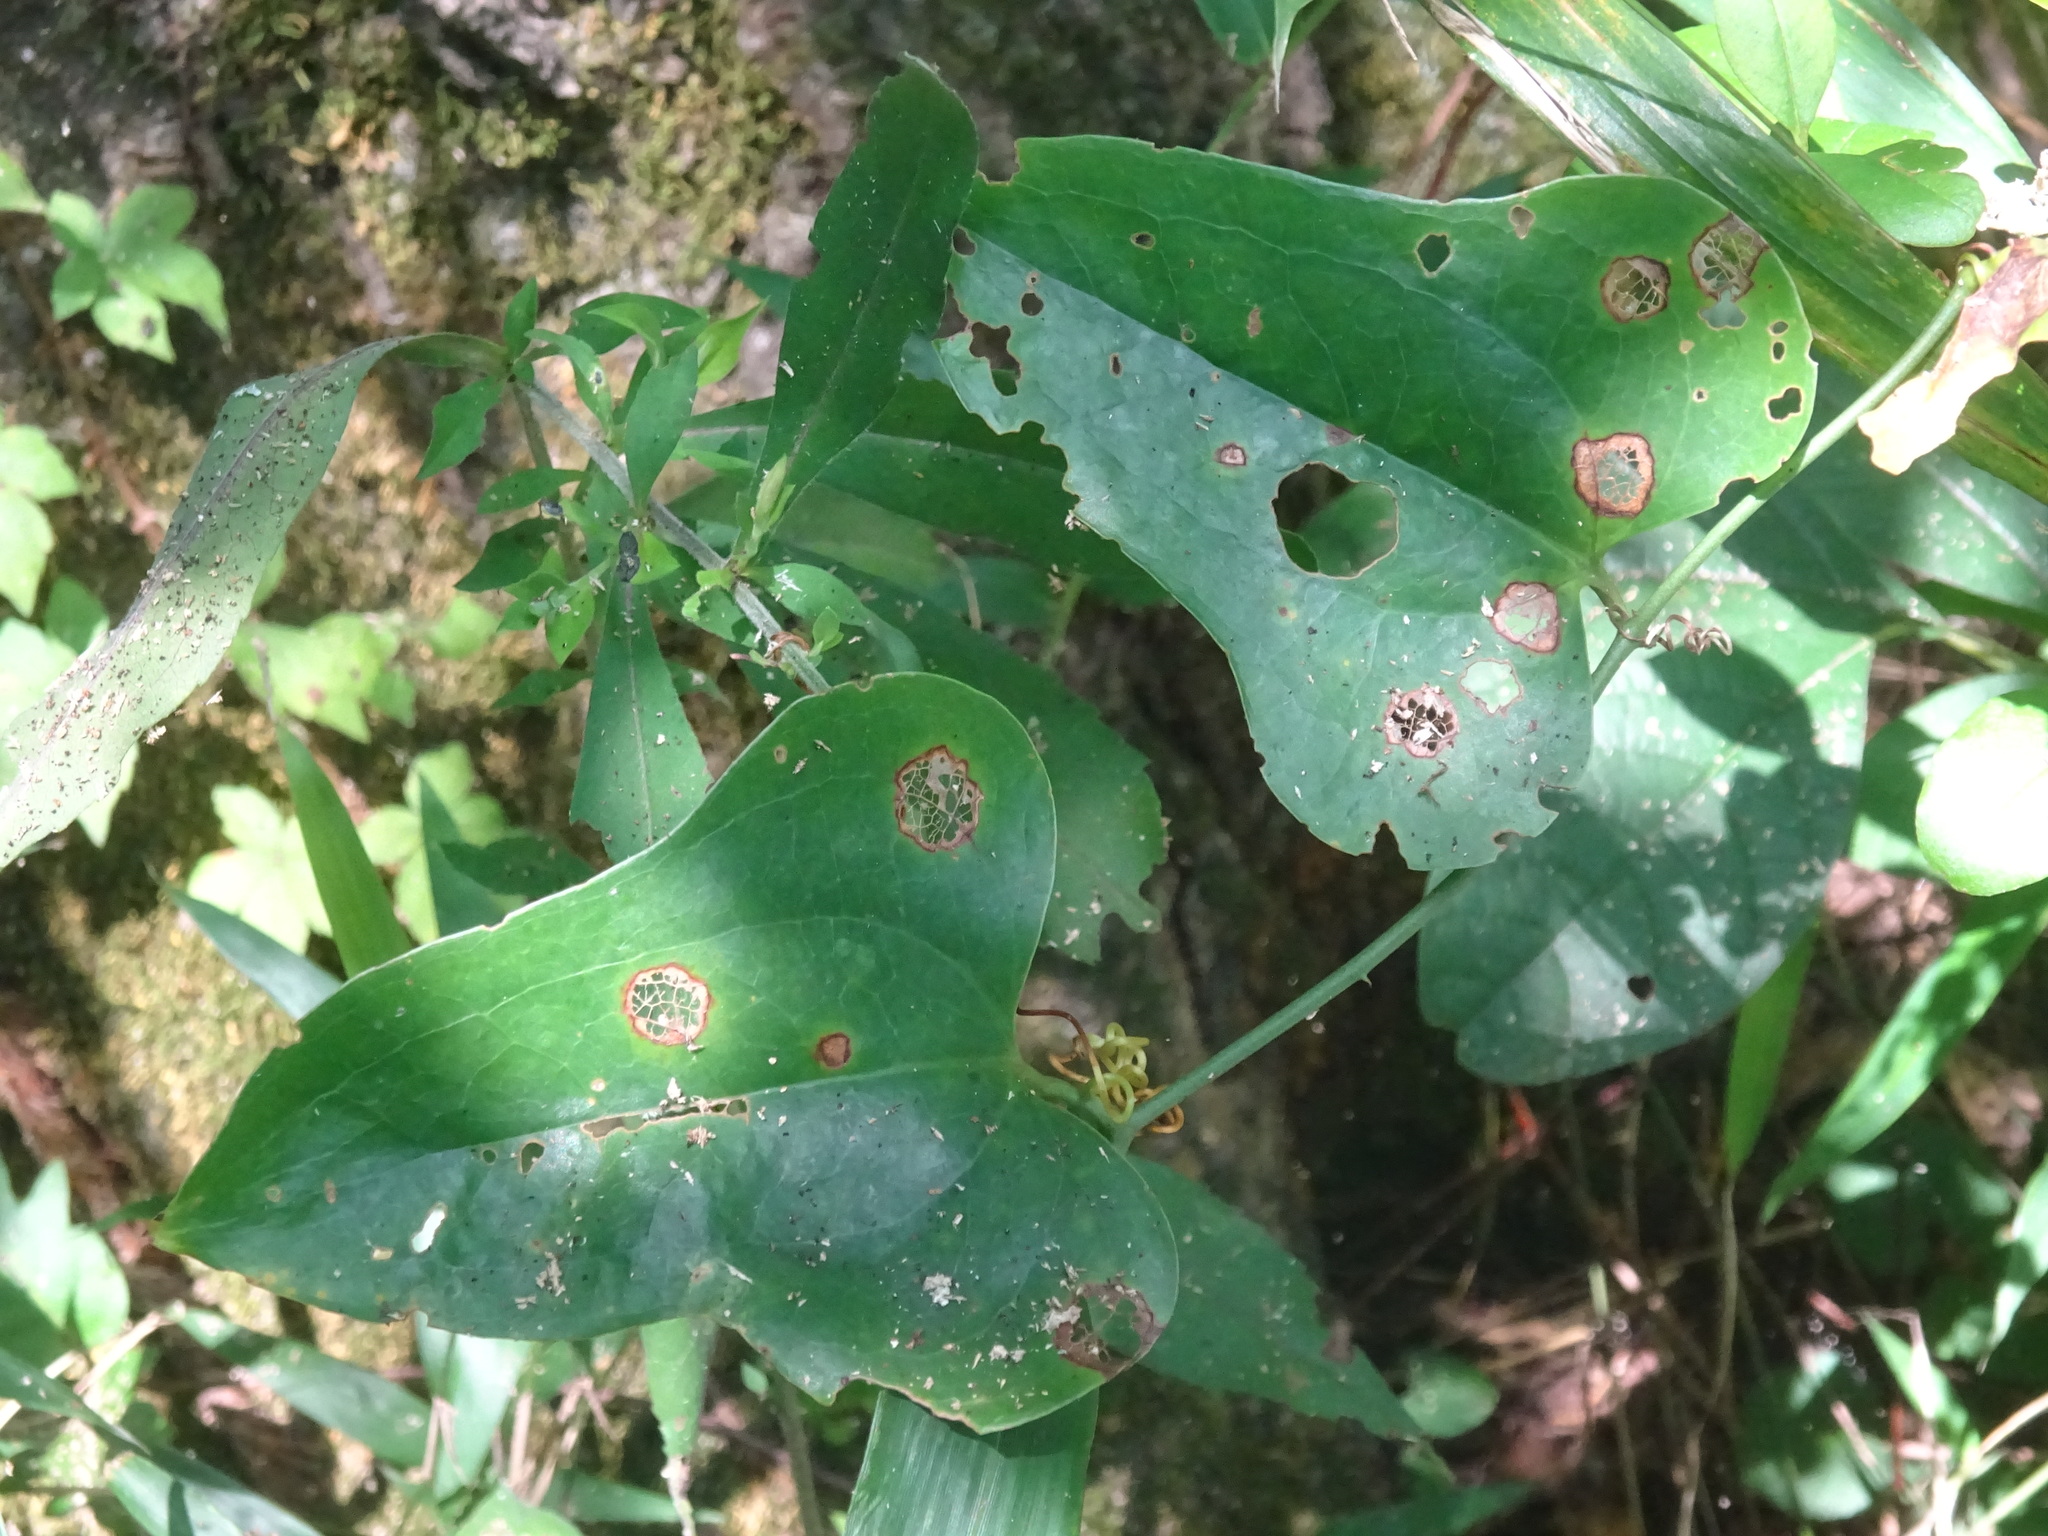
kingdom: Plantae
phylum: Tracheophyta
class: Liliopsida
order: Liliales
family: Smilacaceae
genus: Smilax
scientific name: Smilax bona-nox
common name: Catbrier
